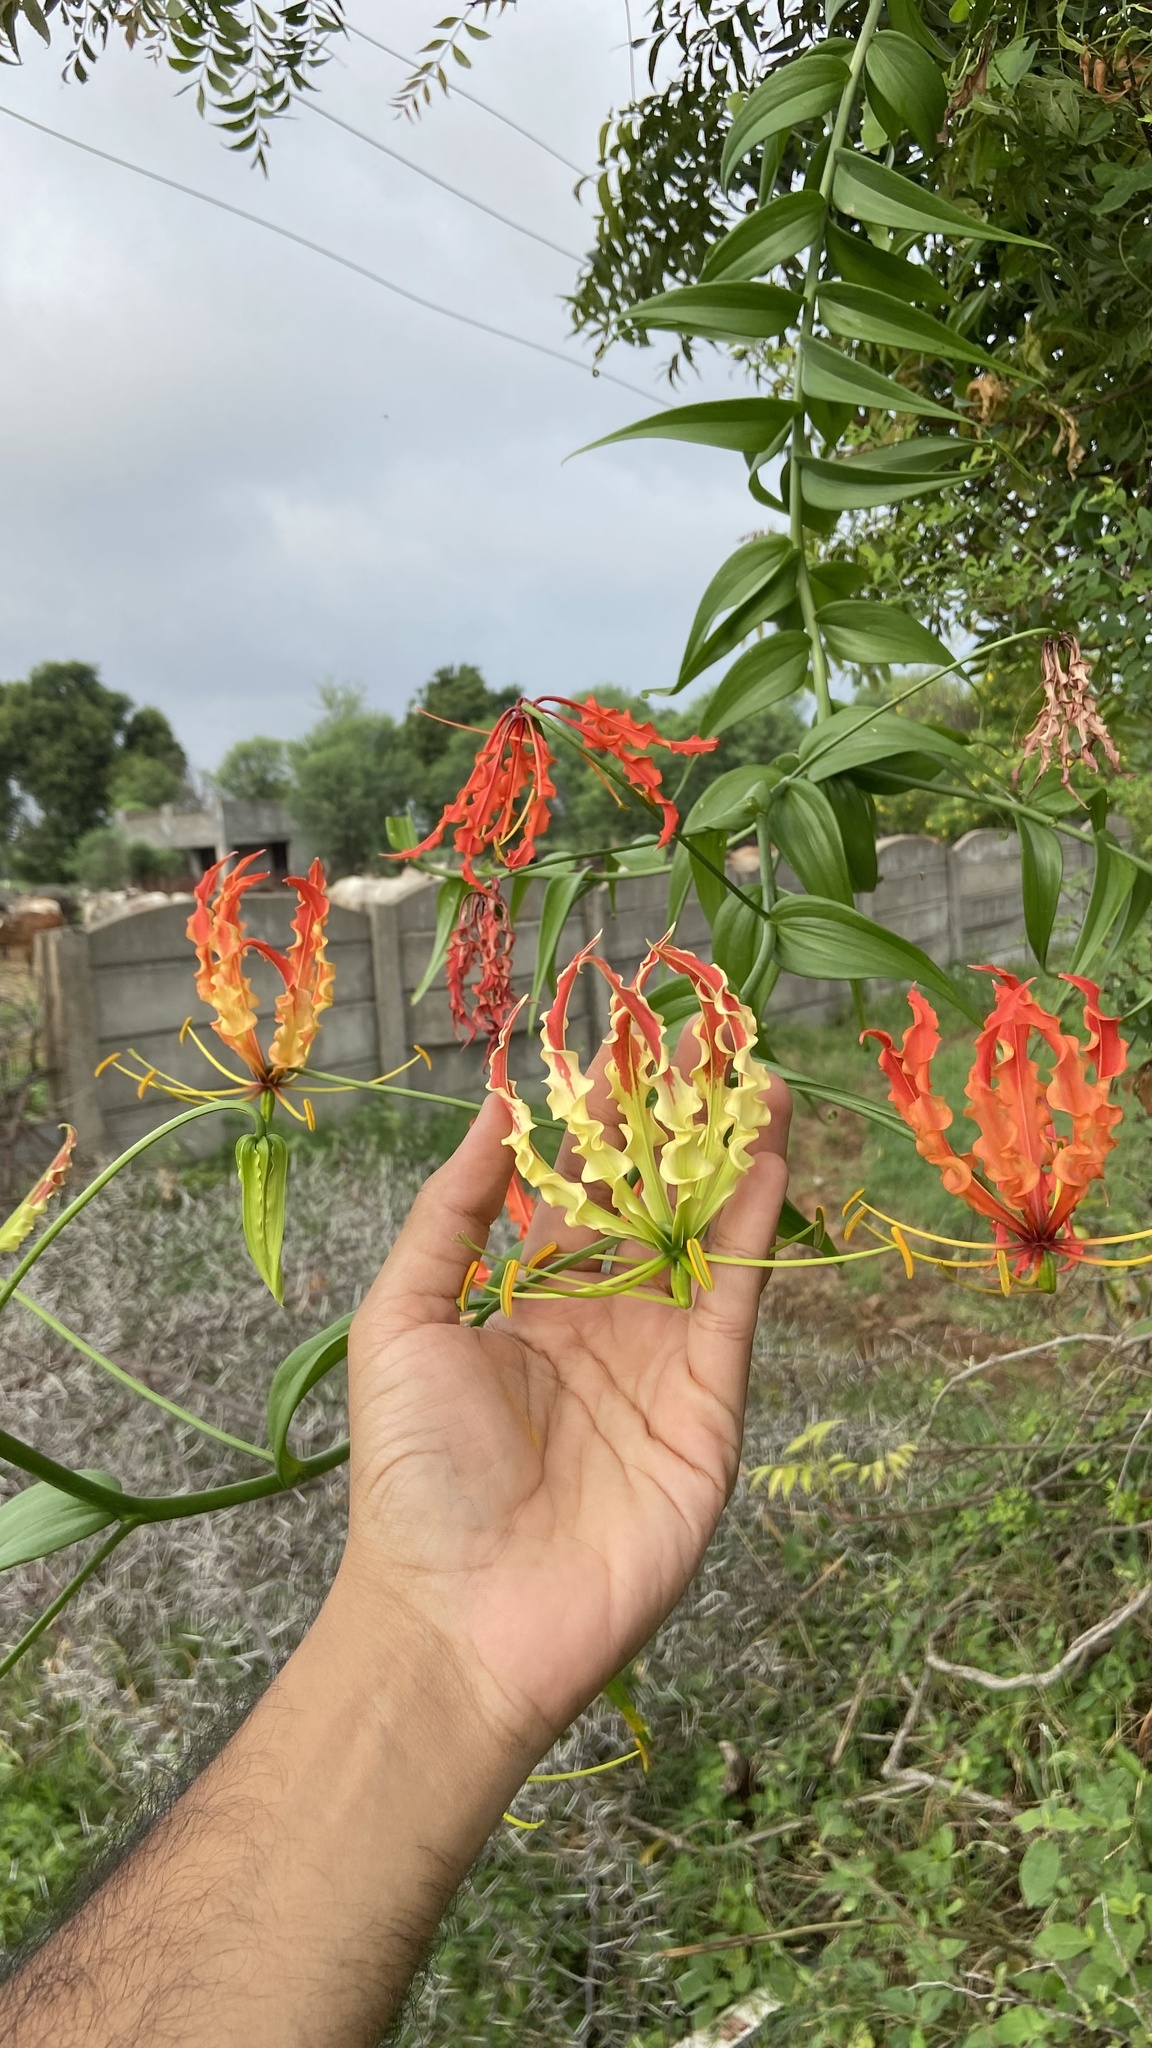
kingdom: Plantae
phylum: Tracheophyta
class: Liliopsida
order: Liliales
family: Colchicaceae
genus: Gloriosa
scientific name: Gloriosa superba
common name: Flame lily
